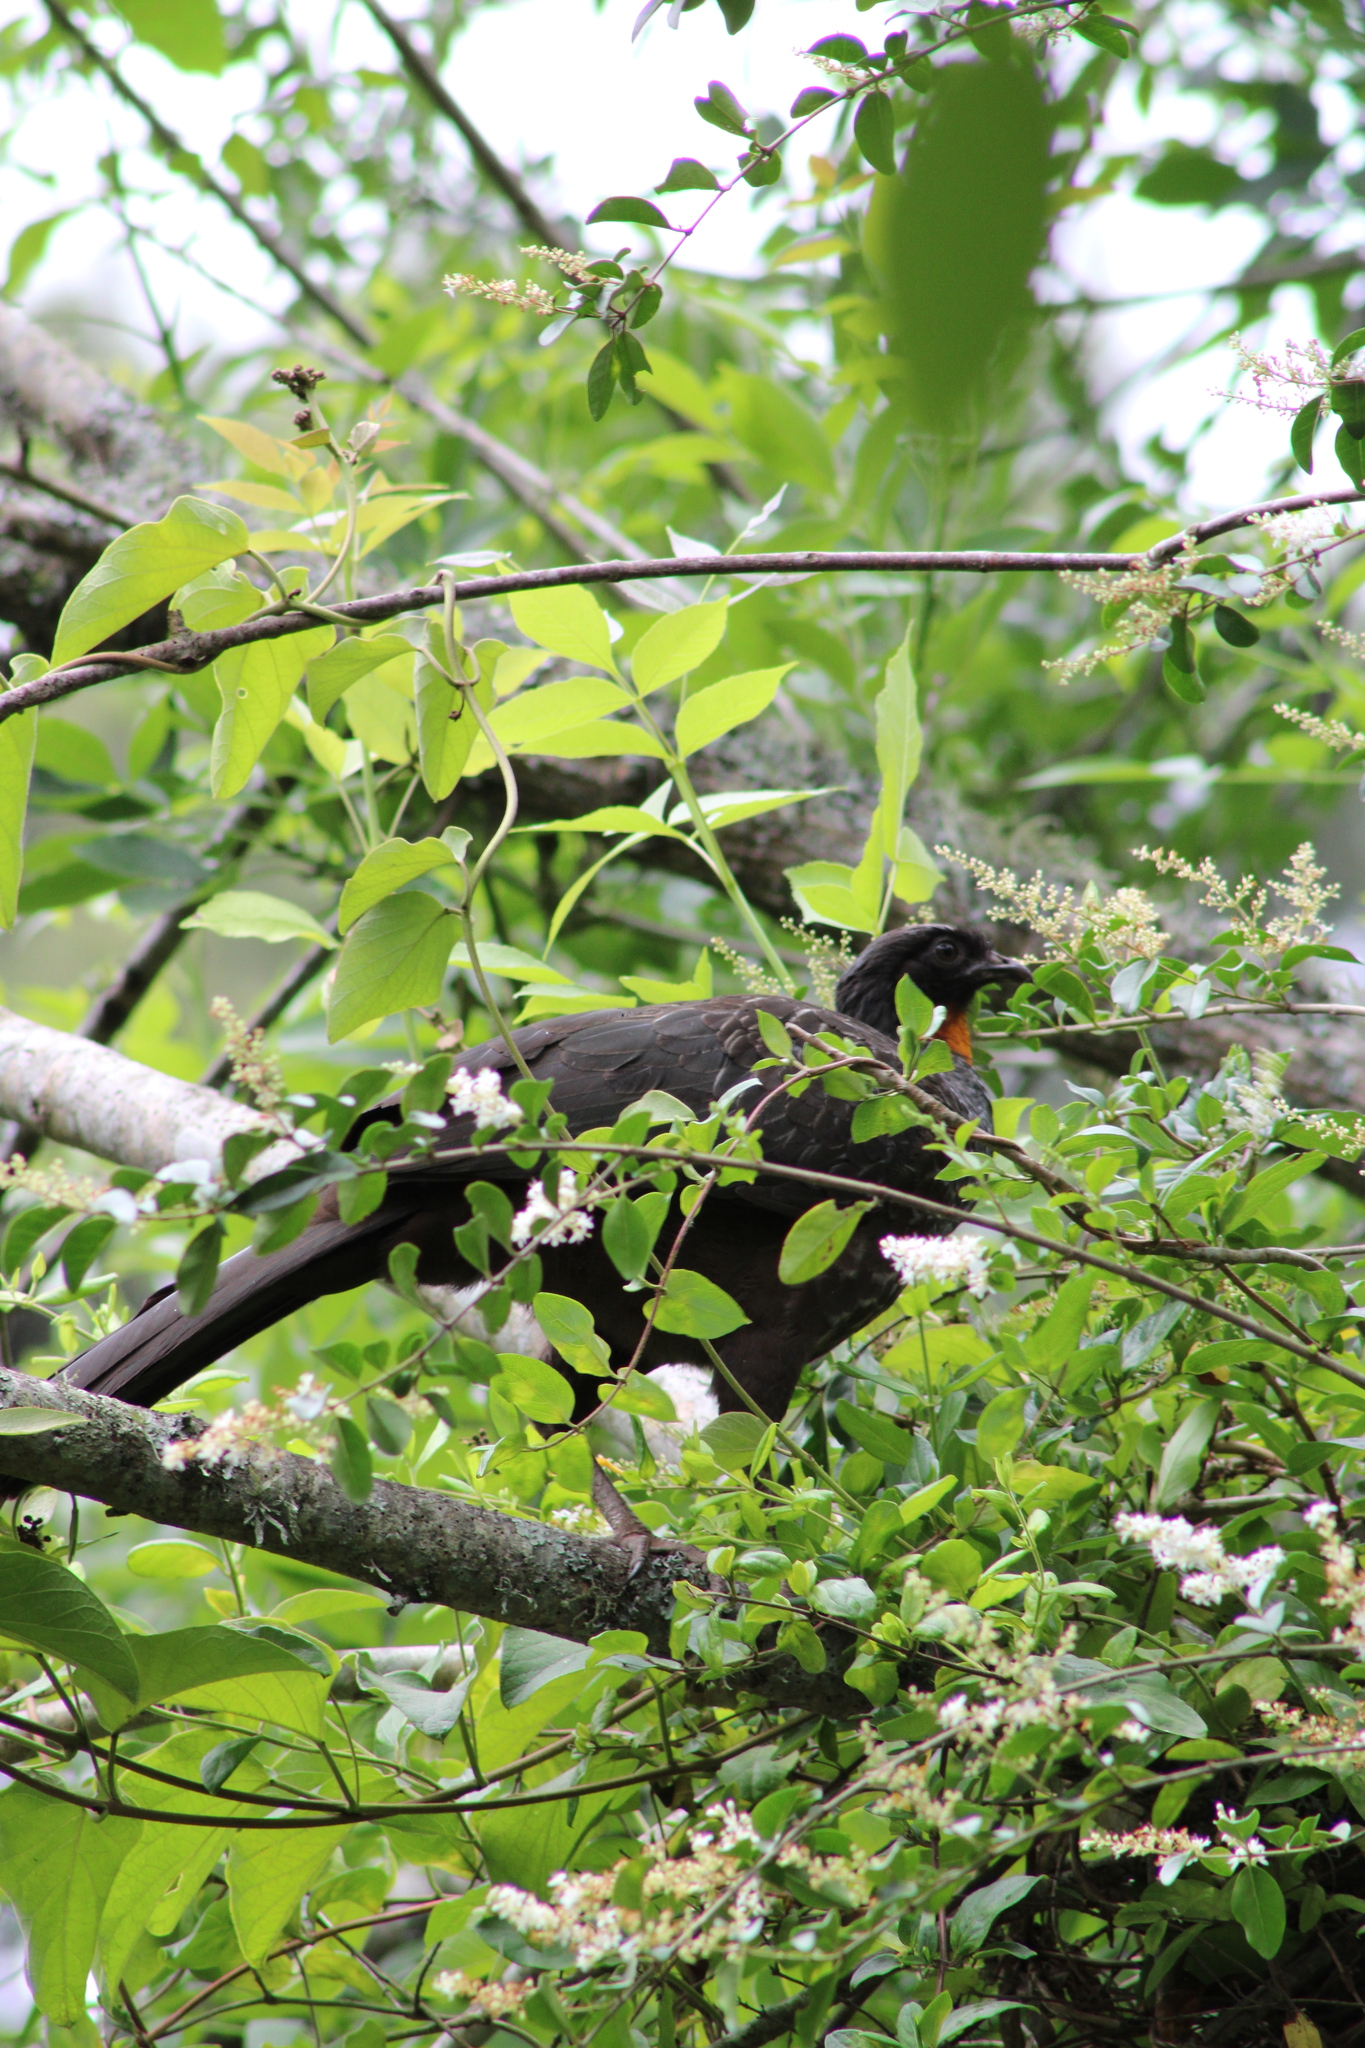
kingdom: Animalia
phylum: Chordata
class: Aves
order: Galliformes
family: Cracidae
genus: Penelope
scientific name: Penelope obscura
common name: Dusky-legged guan
